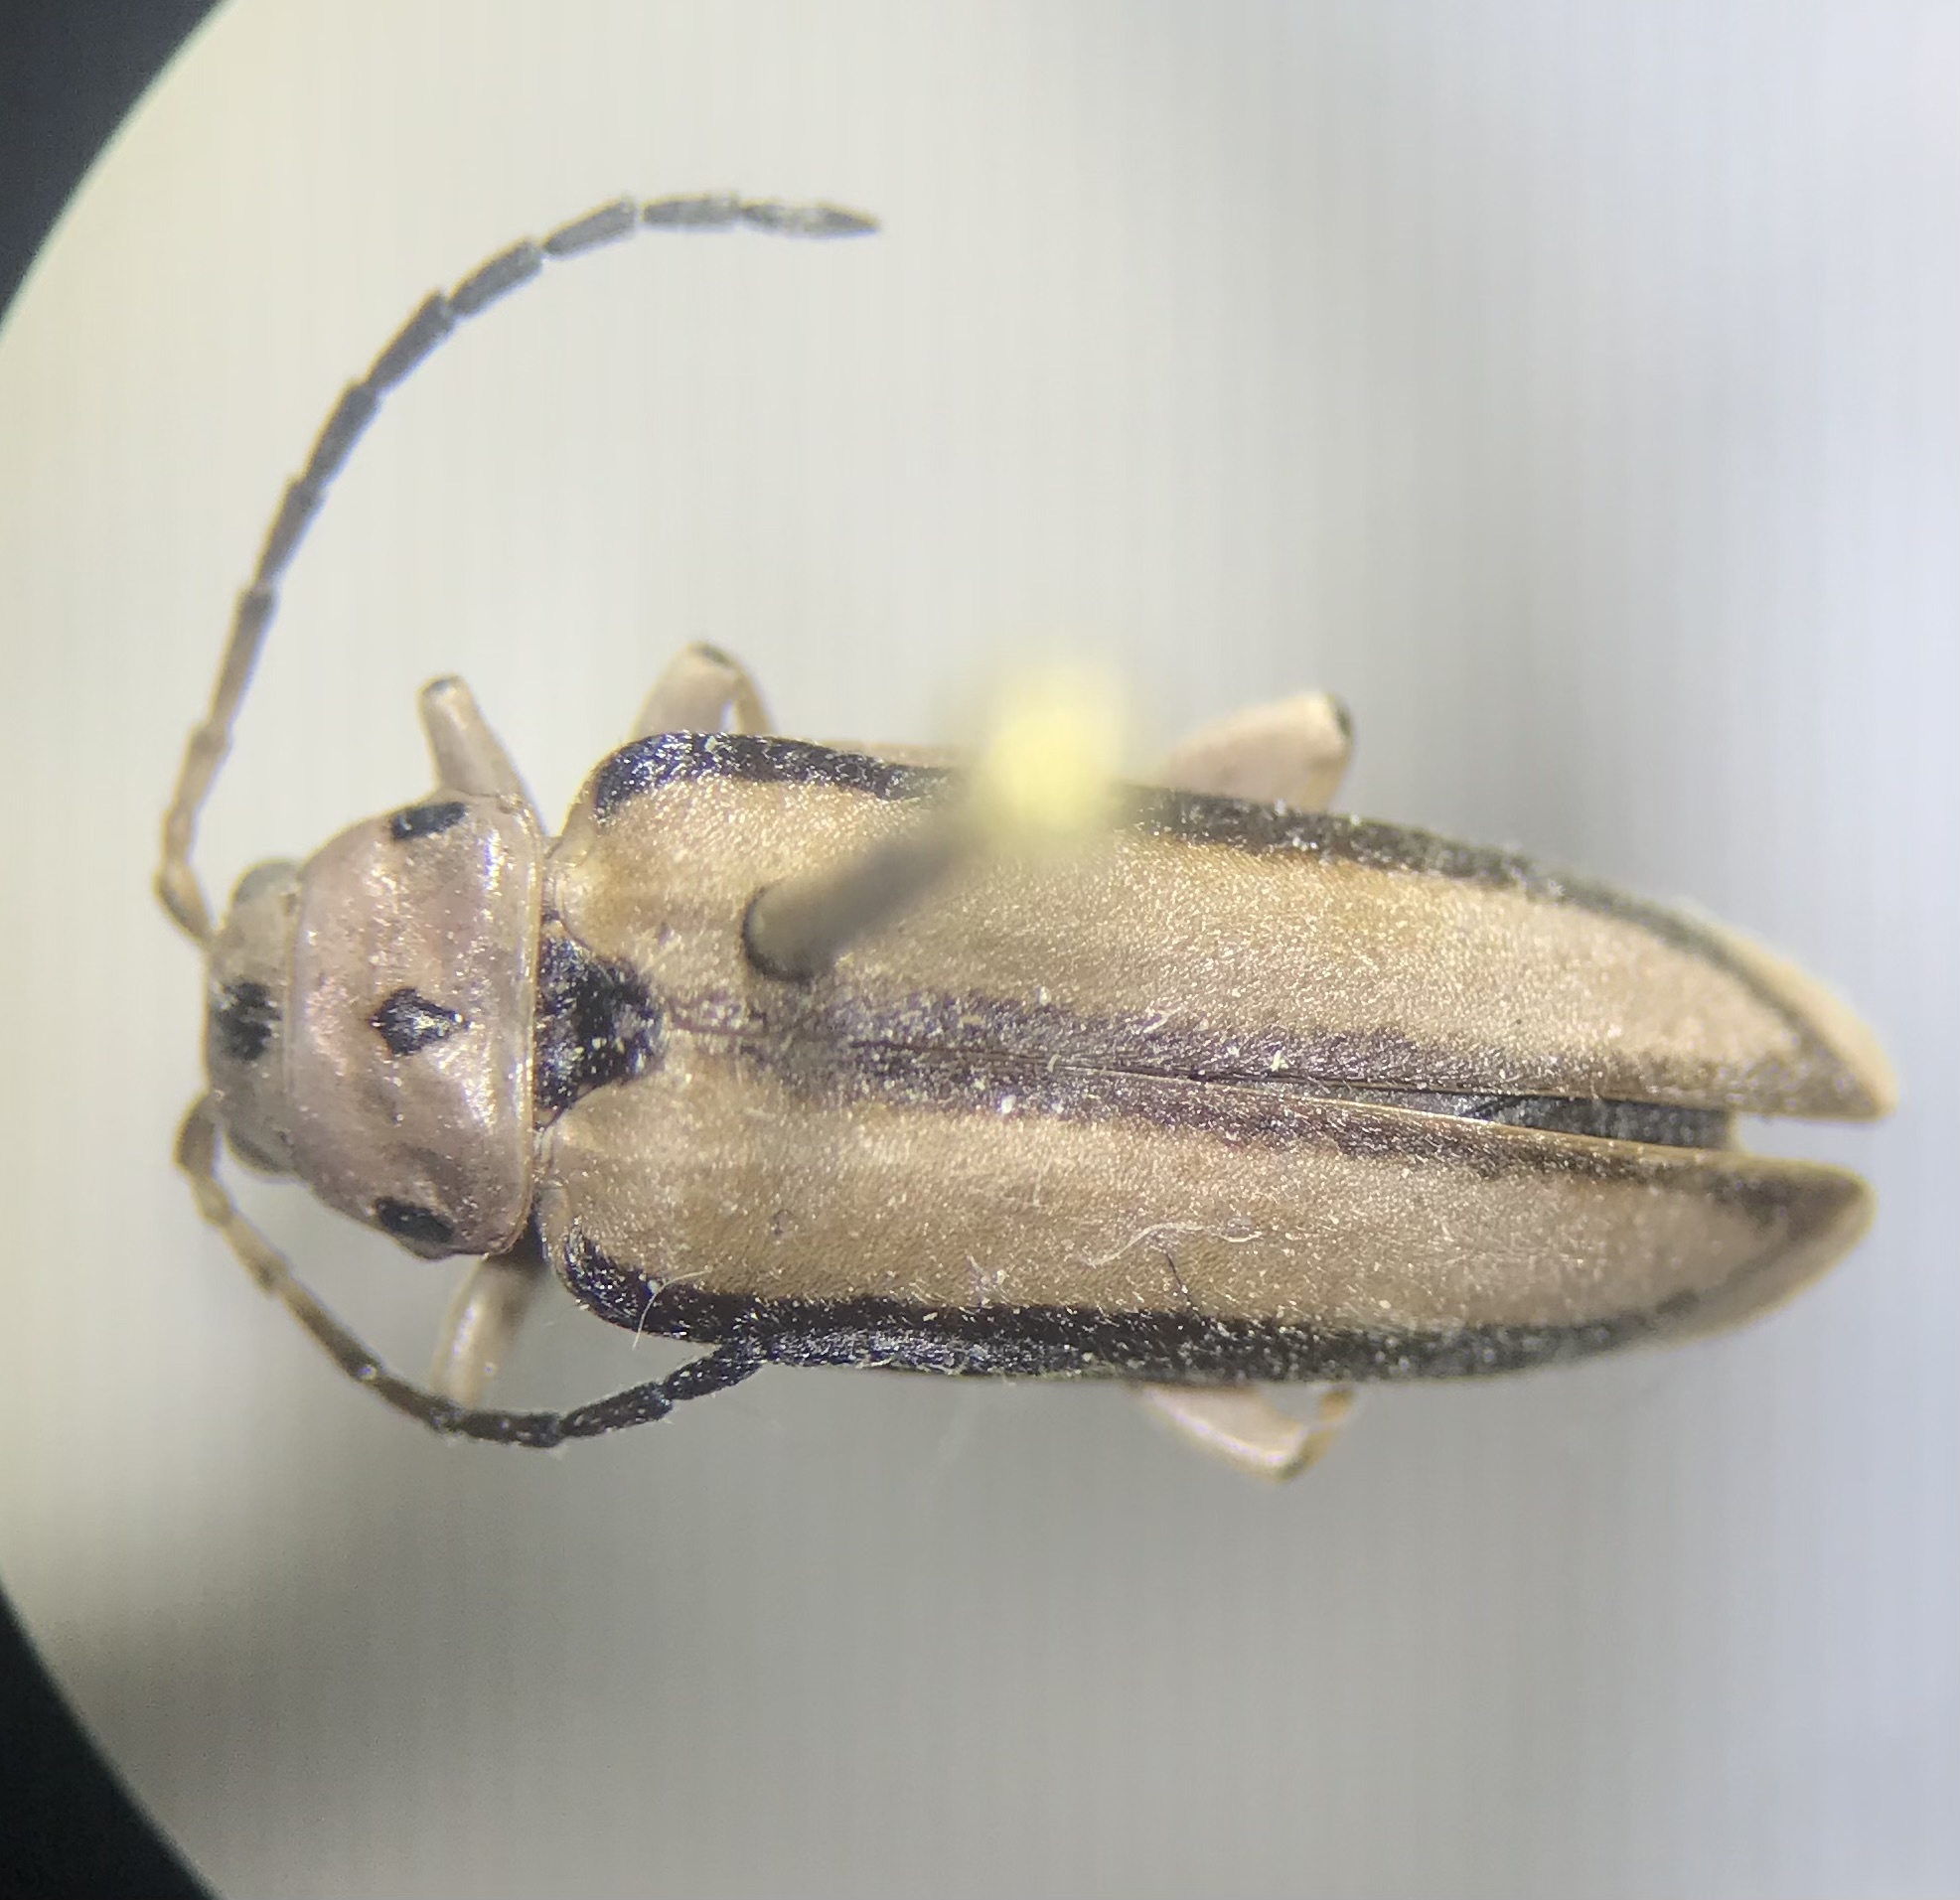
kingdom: Animalia
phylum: Arthropoda
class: Insecta
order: Coleoptera
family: Chrysomelidae
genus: Xanthogaleruca
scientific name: Xanthogaleruca luteola
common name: Elm leaf beetle
